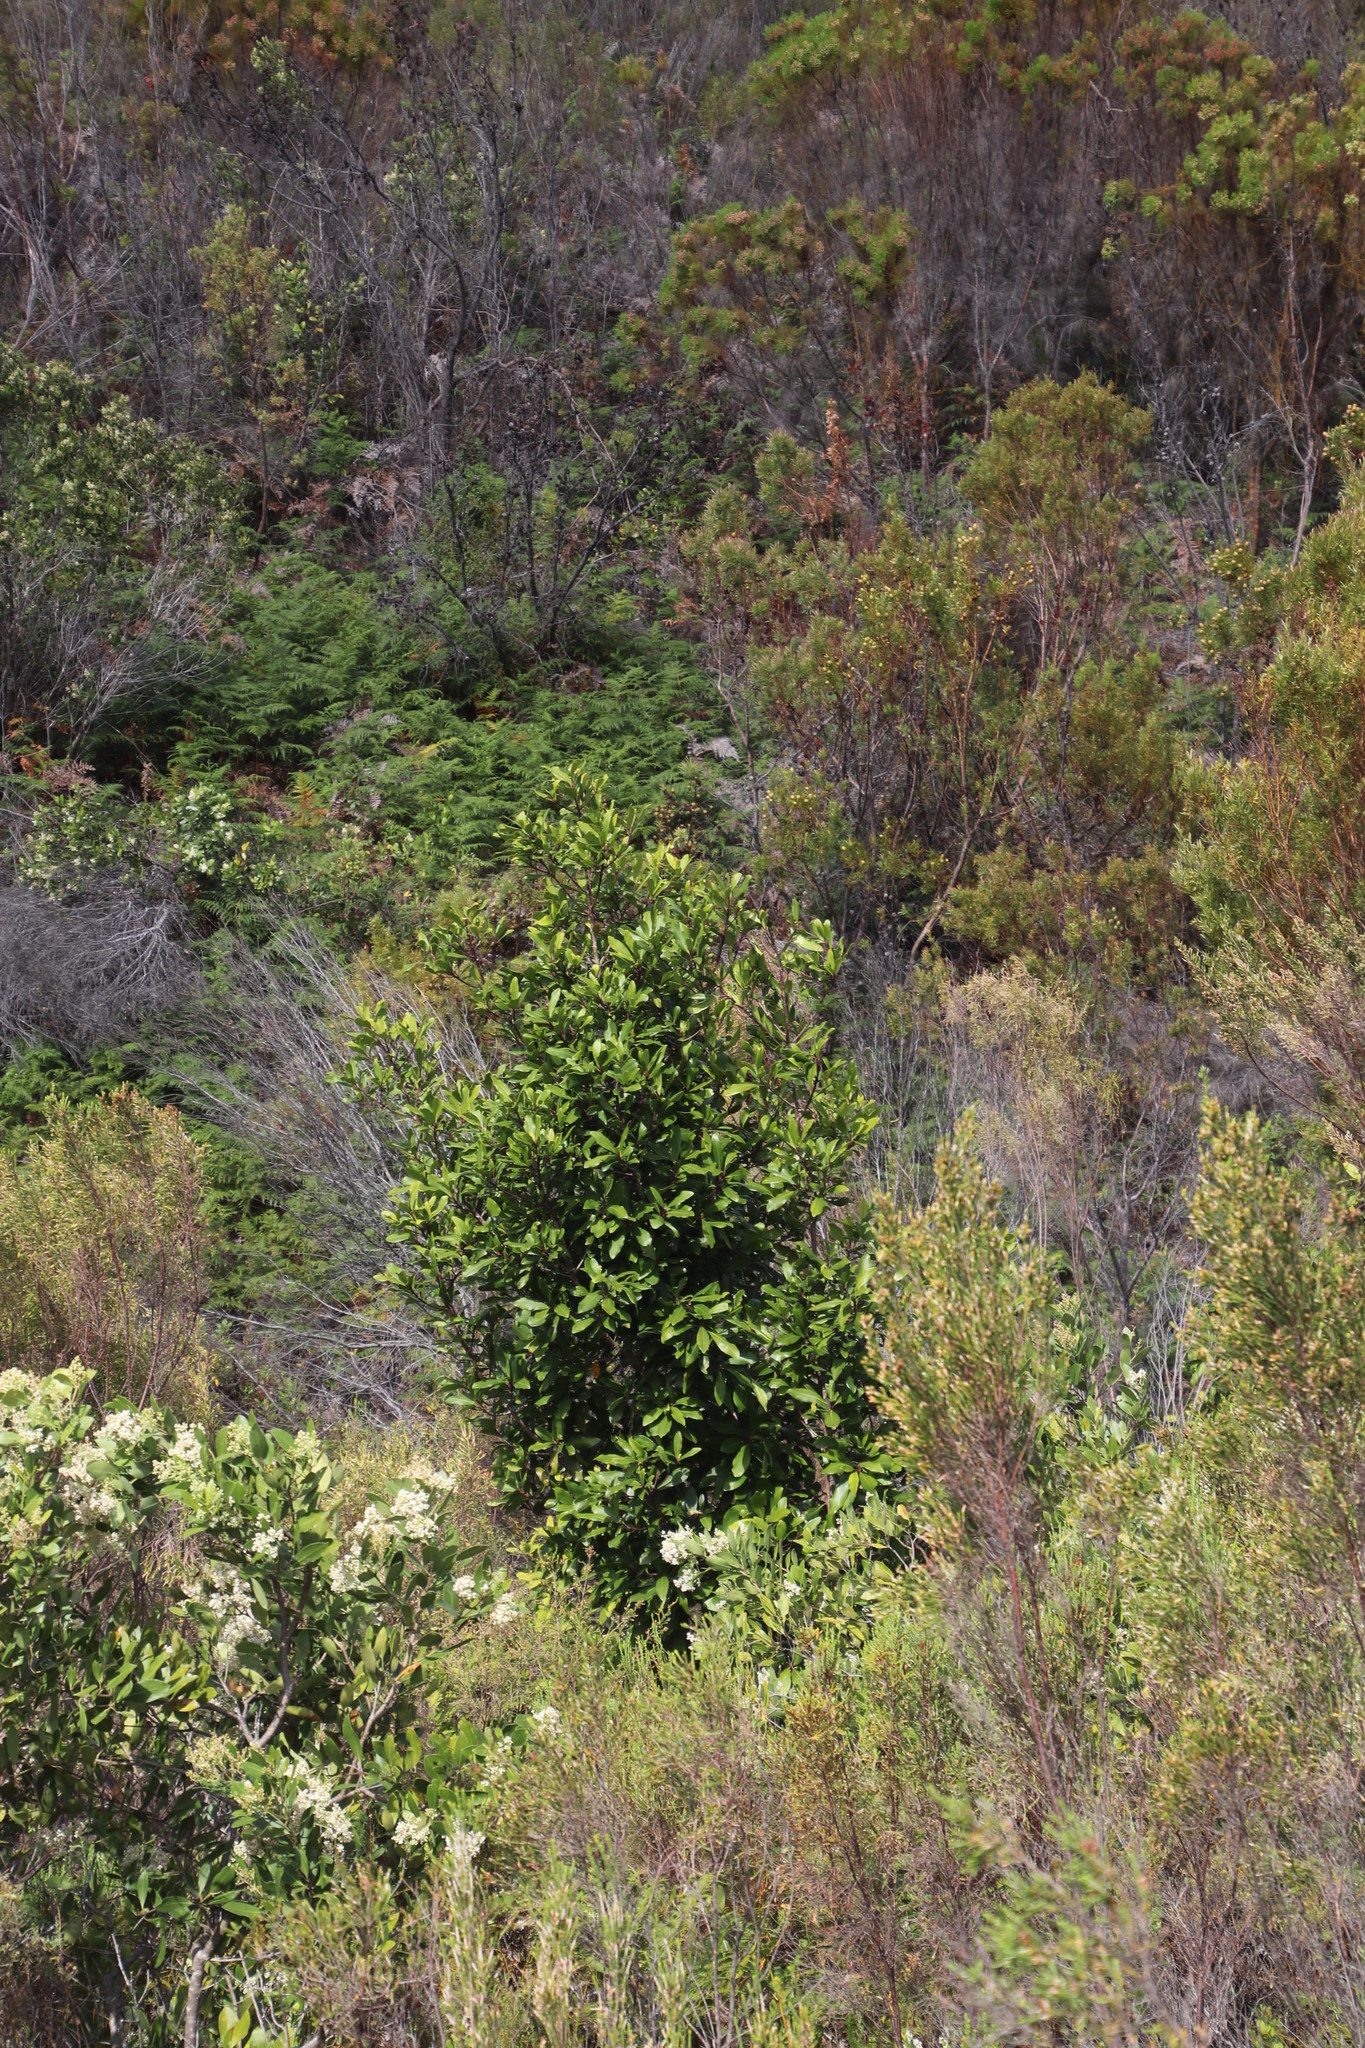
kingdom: Plantae
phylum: Tracheophyta
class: Magnoliopsida
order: Ericales
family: Primulaceae
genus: Myrsine
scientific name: Myrsine melanophloeos
